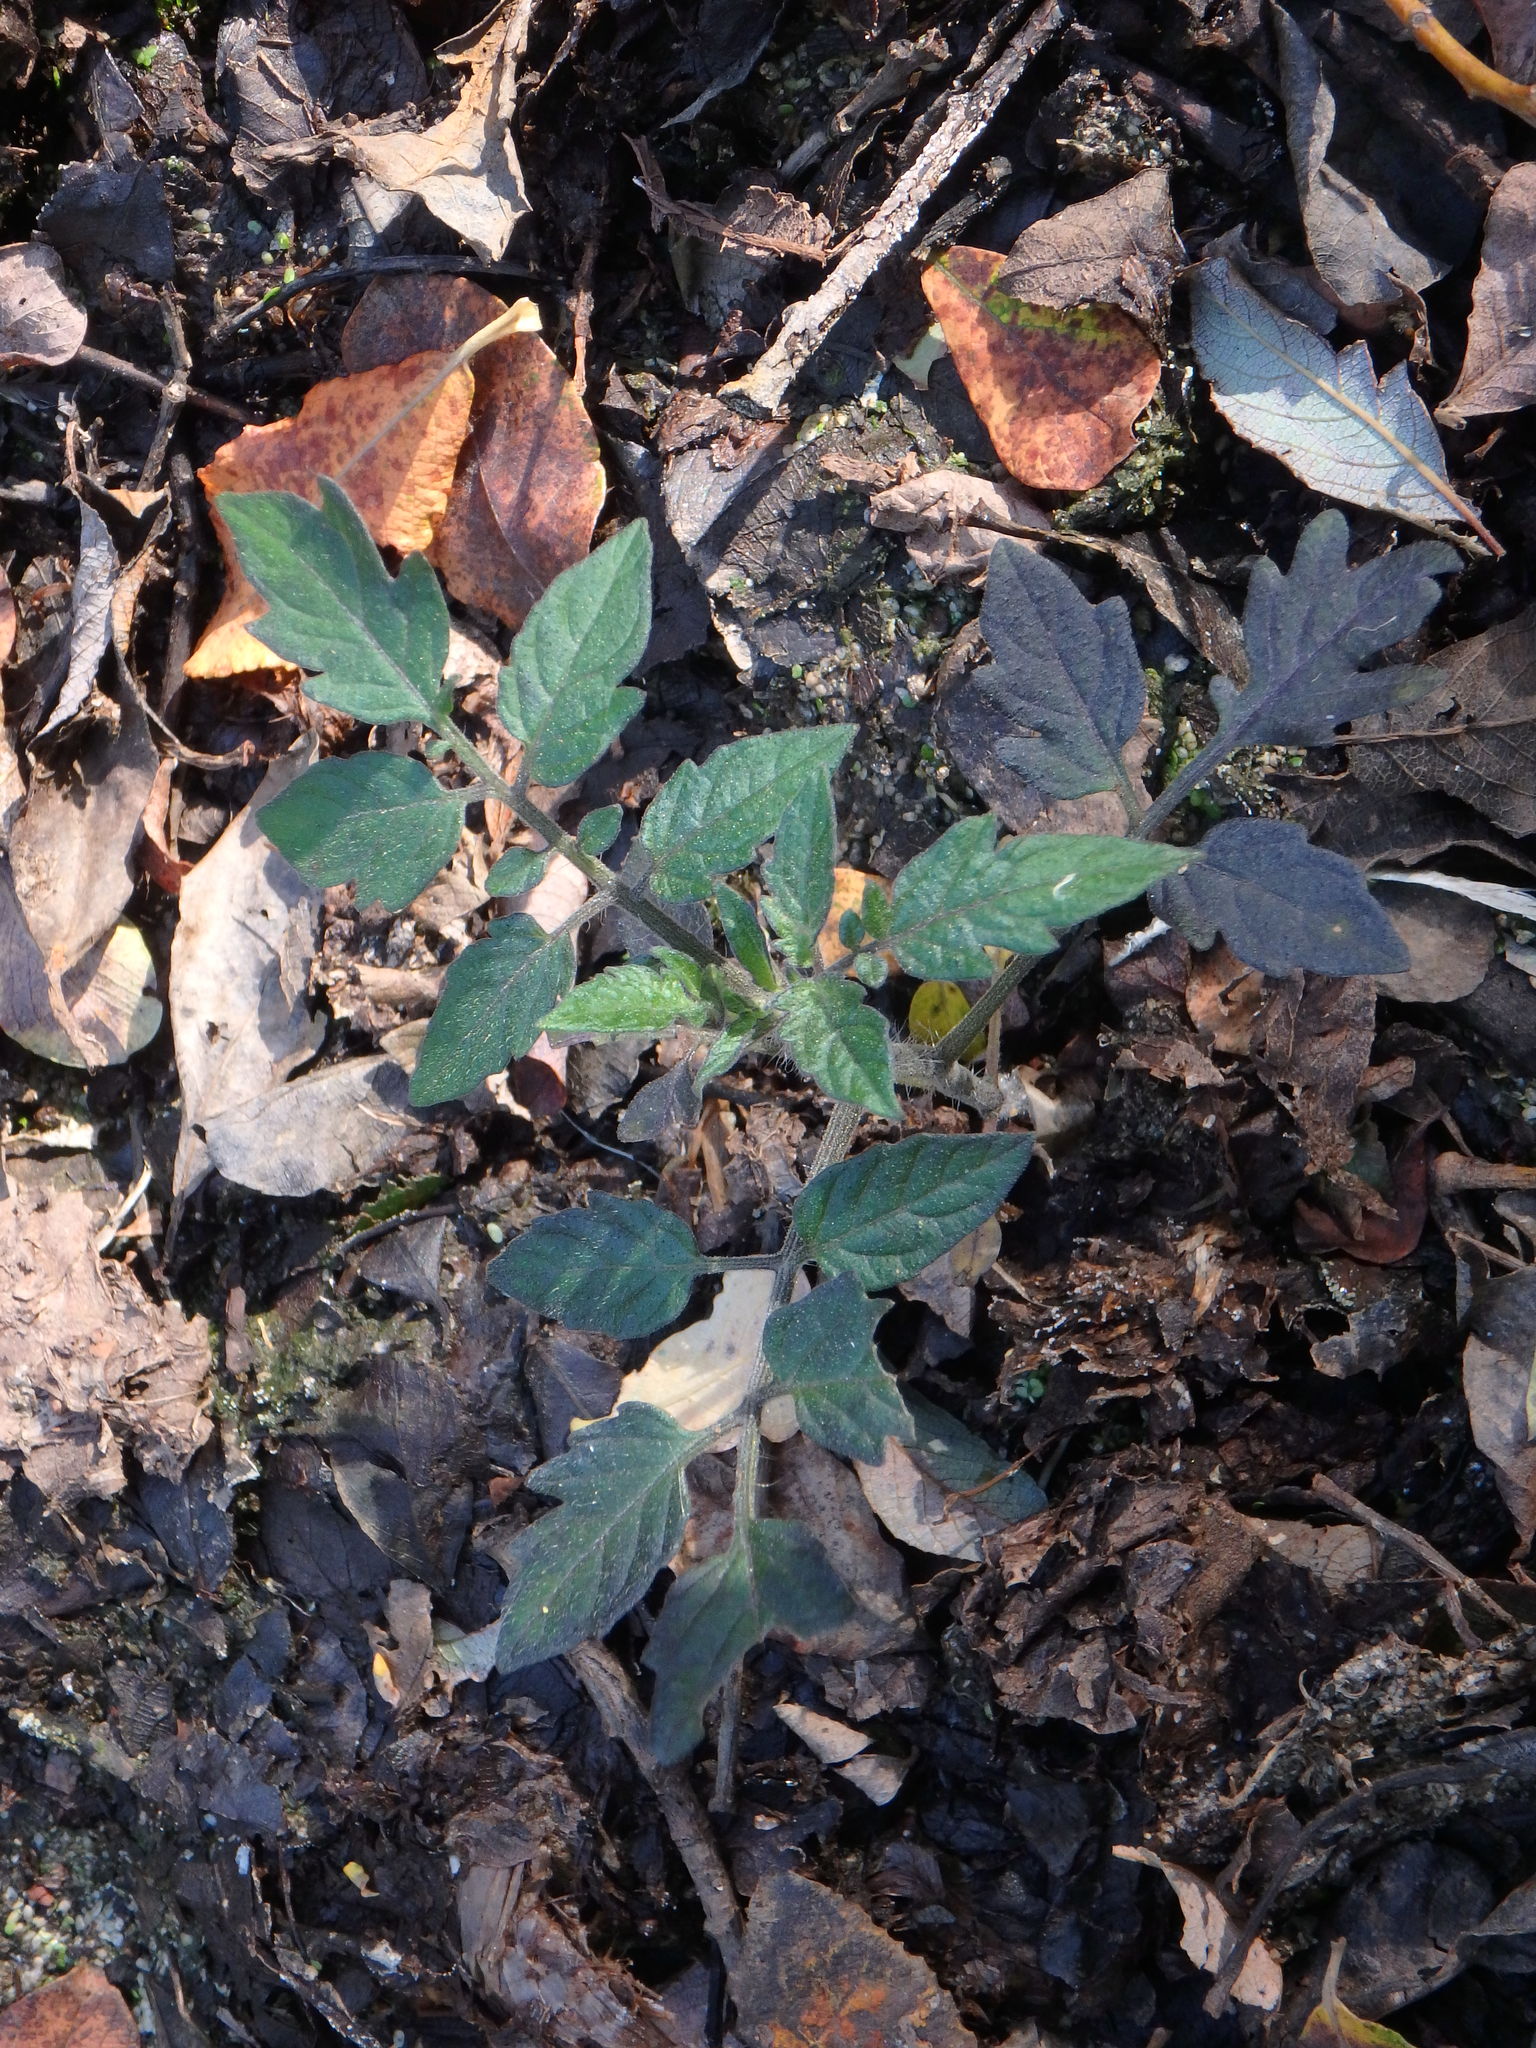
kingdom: Plantae
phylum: Tracheophyta
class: Magnoliopsida
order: Solanales
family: Solanaceae
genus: Solanum
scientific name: Solanum lycopersicum
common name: Garden tomato
